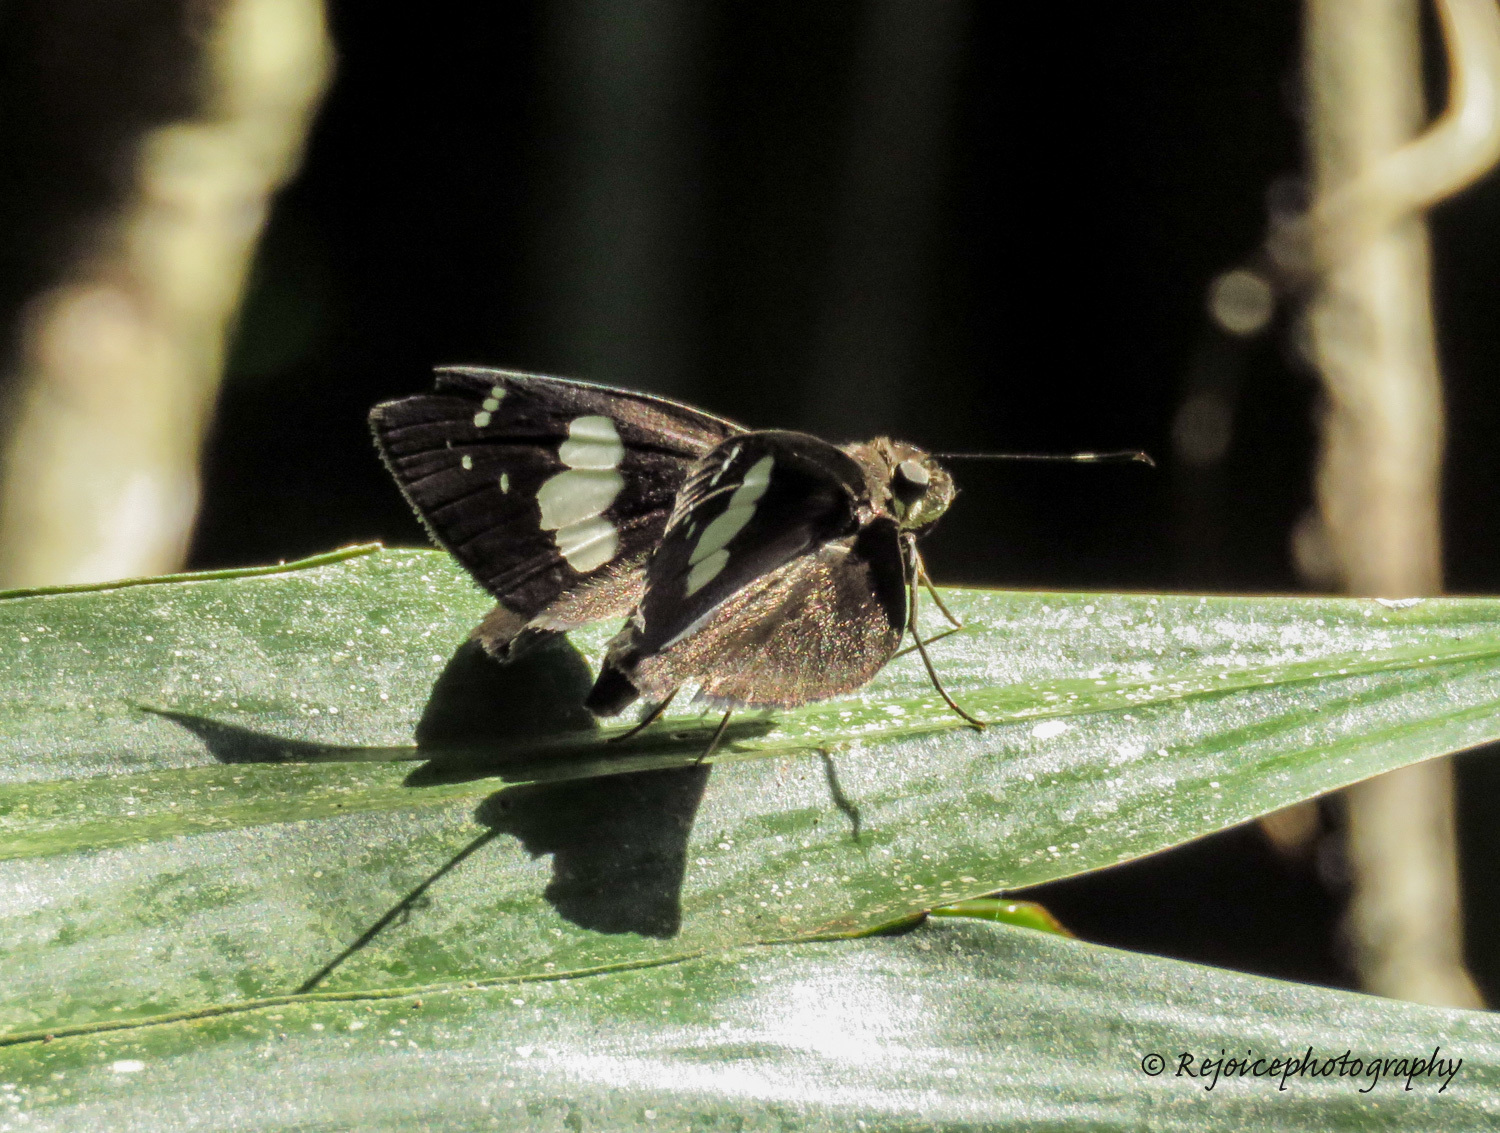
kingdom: Animalia
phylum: Arthropoda
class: Insecta
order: Lepidoptera
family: Hesperiidae
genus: Notocrypta
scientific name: Notocrypta feisthamelii
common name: Spotted demon
